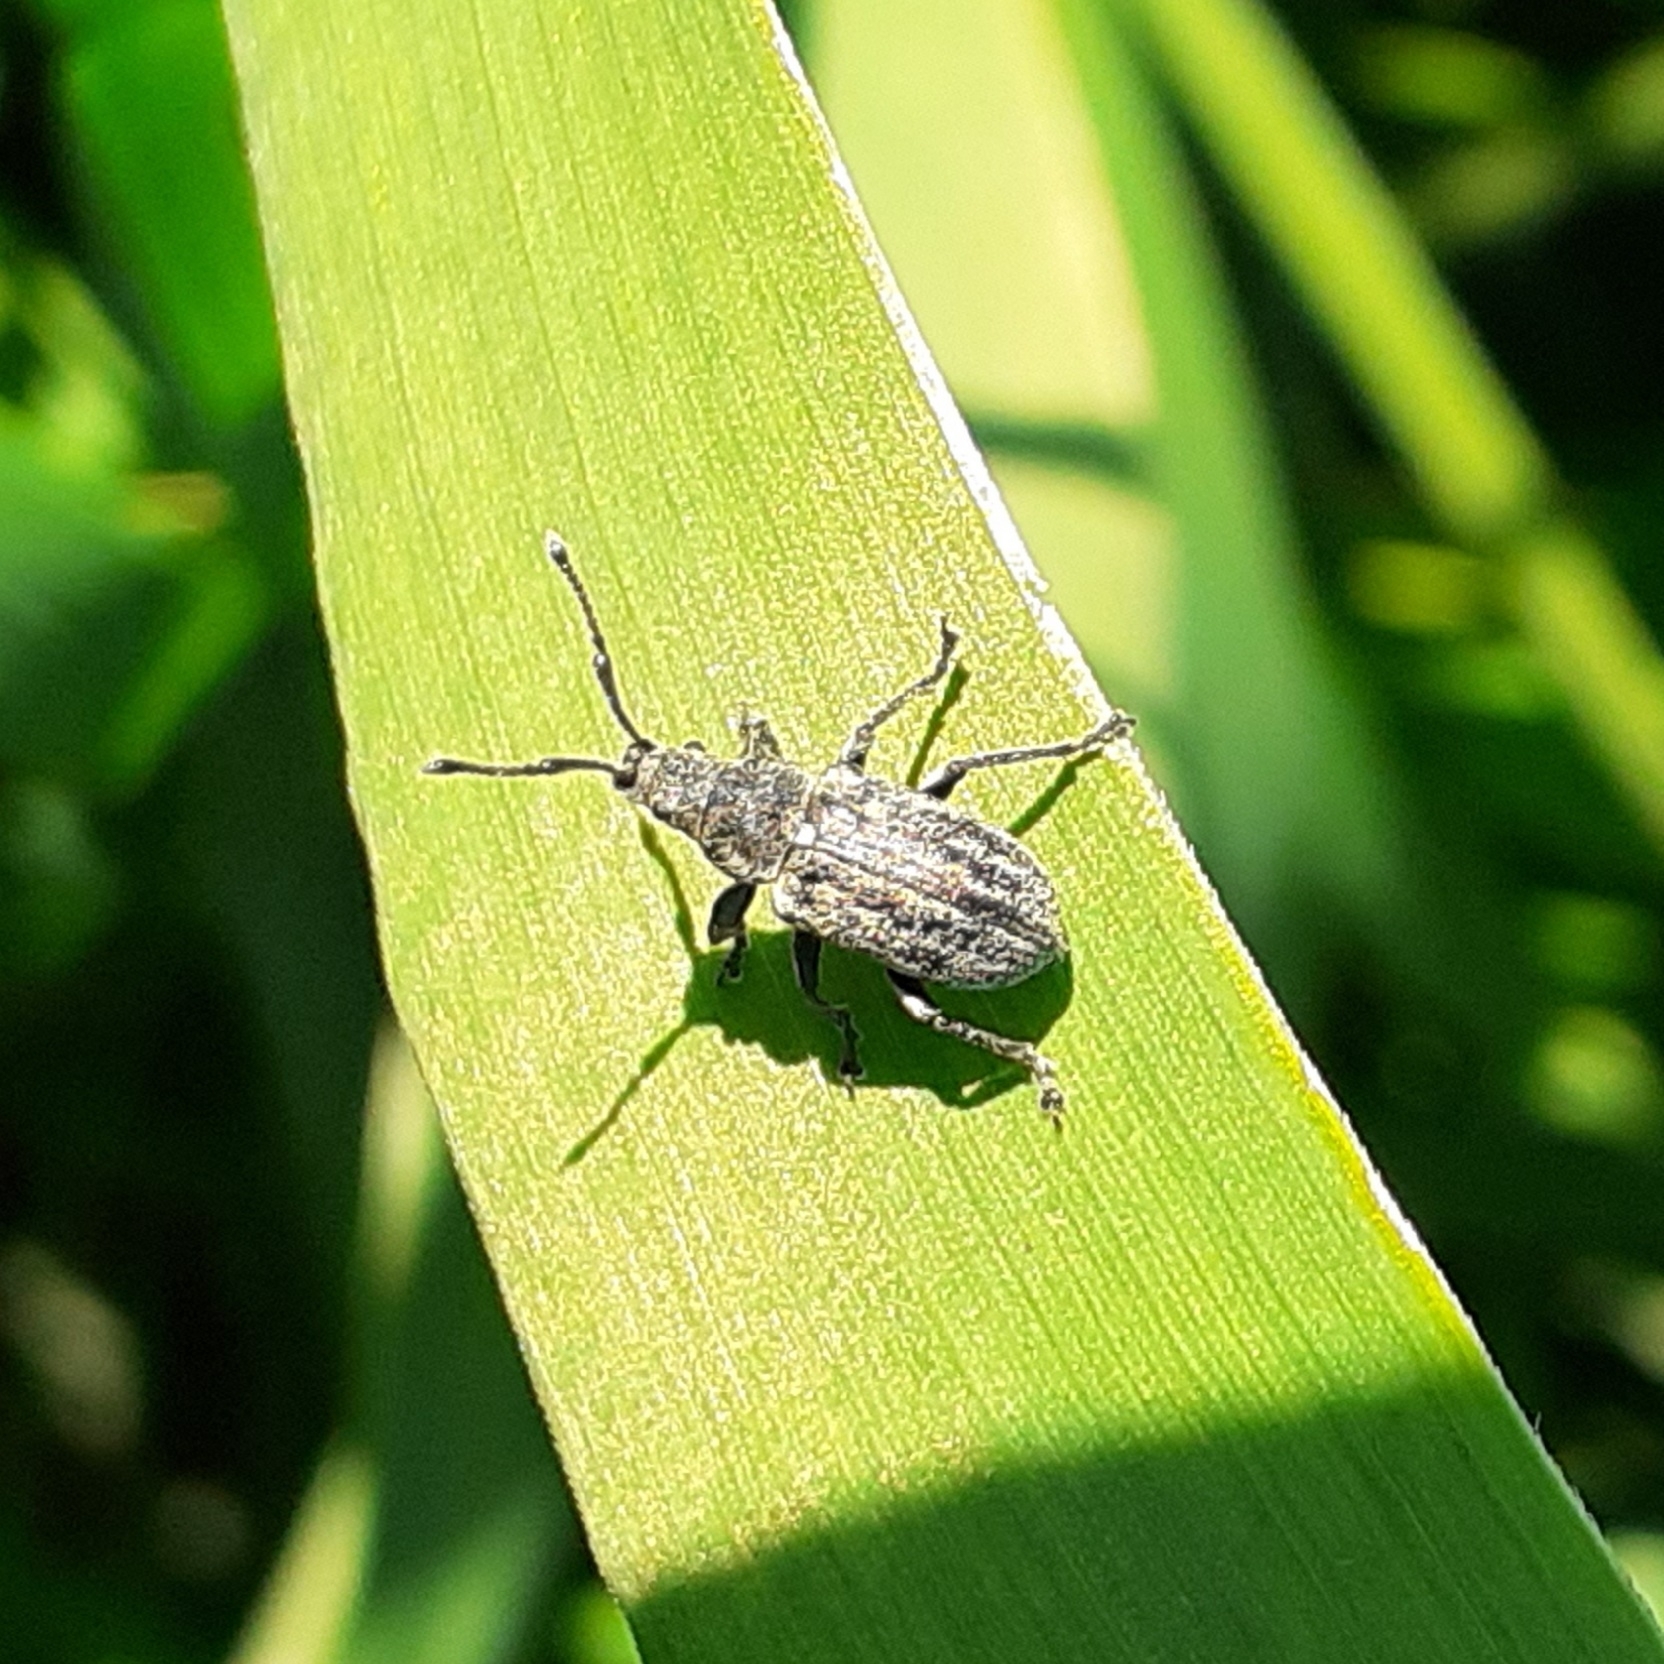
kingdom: Animalia
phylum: Arthropoda
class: Insecta
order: Coleoptera
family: Curculionidae
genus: Phyllobius
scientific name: Phyllobius pyri
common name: Common leaf weevil
